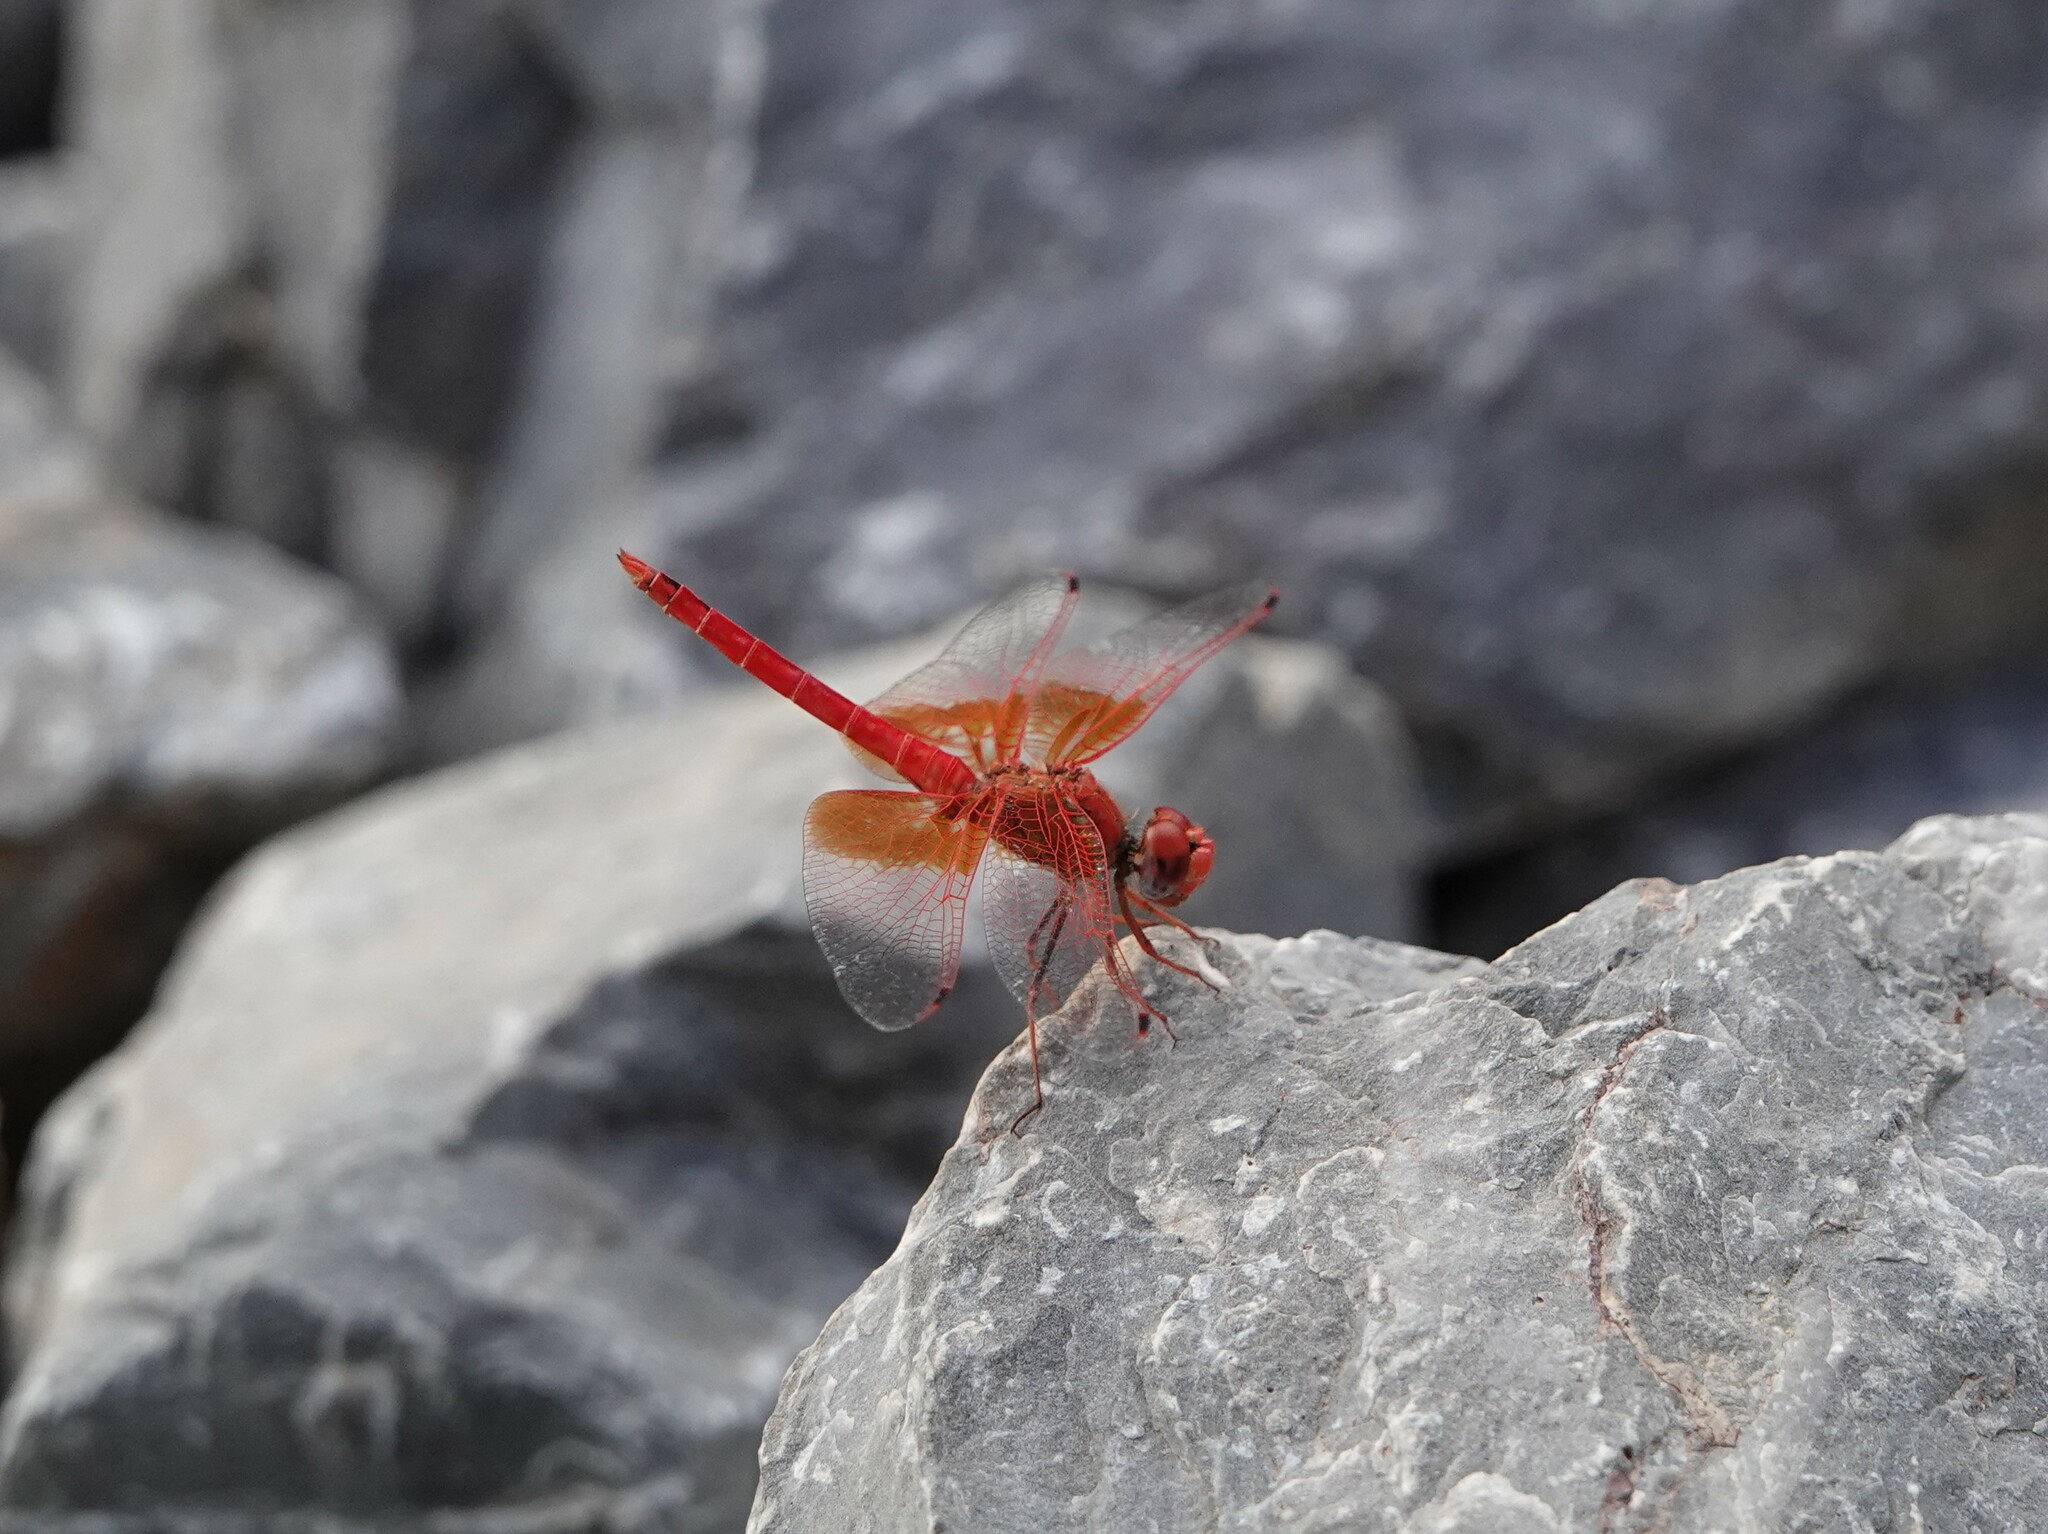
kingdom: Animalia
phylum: Arthropoda
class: Insecta
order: Odonata
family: Libellulidae
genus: Trithemis
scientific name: Trithemis kirbyi
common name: Kirby's dropwing
